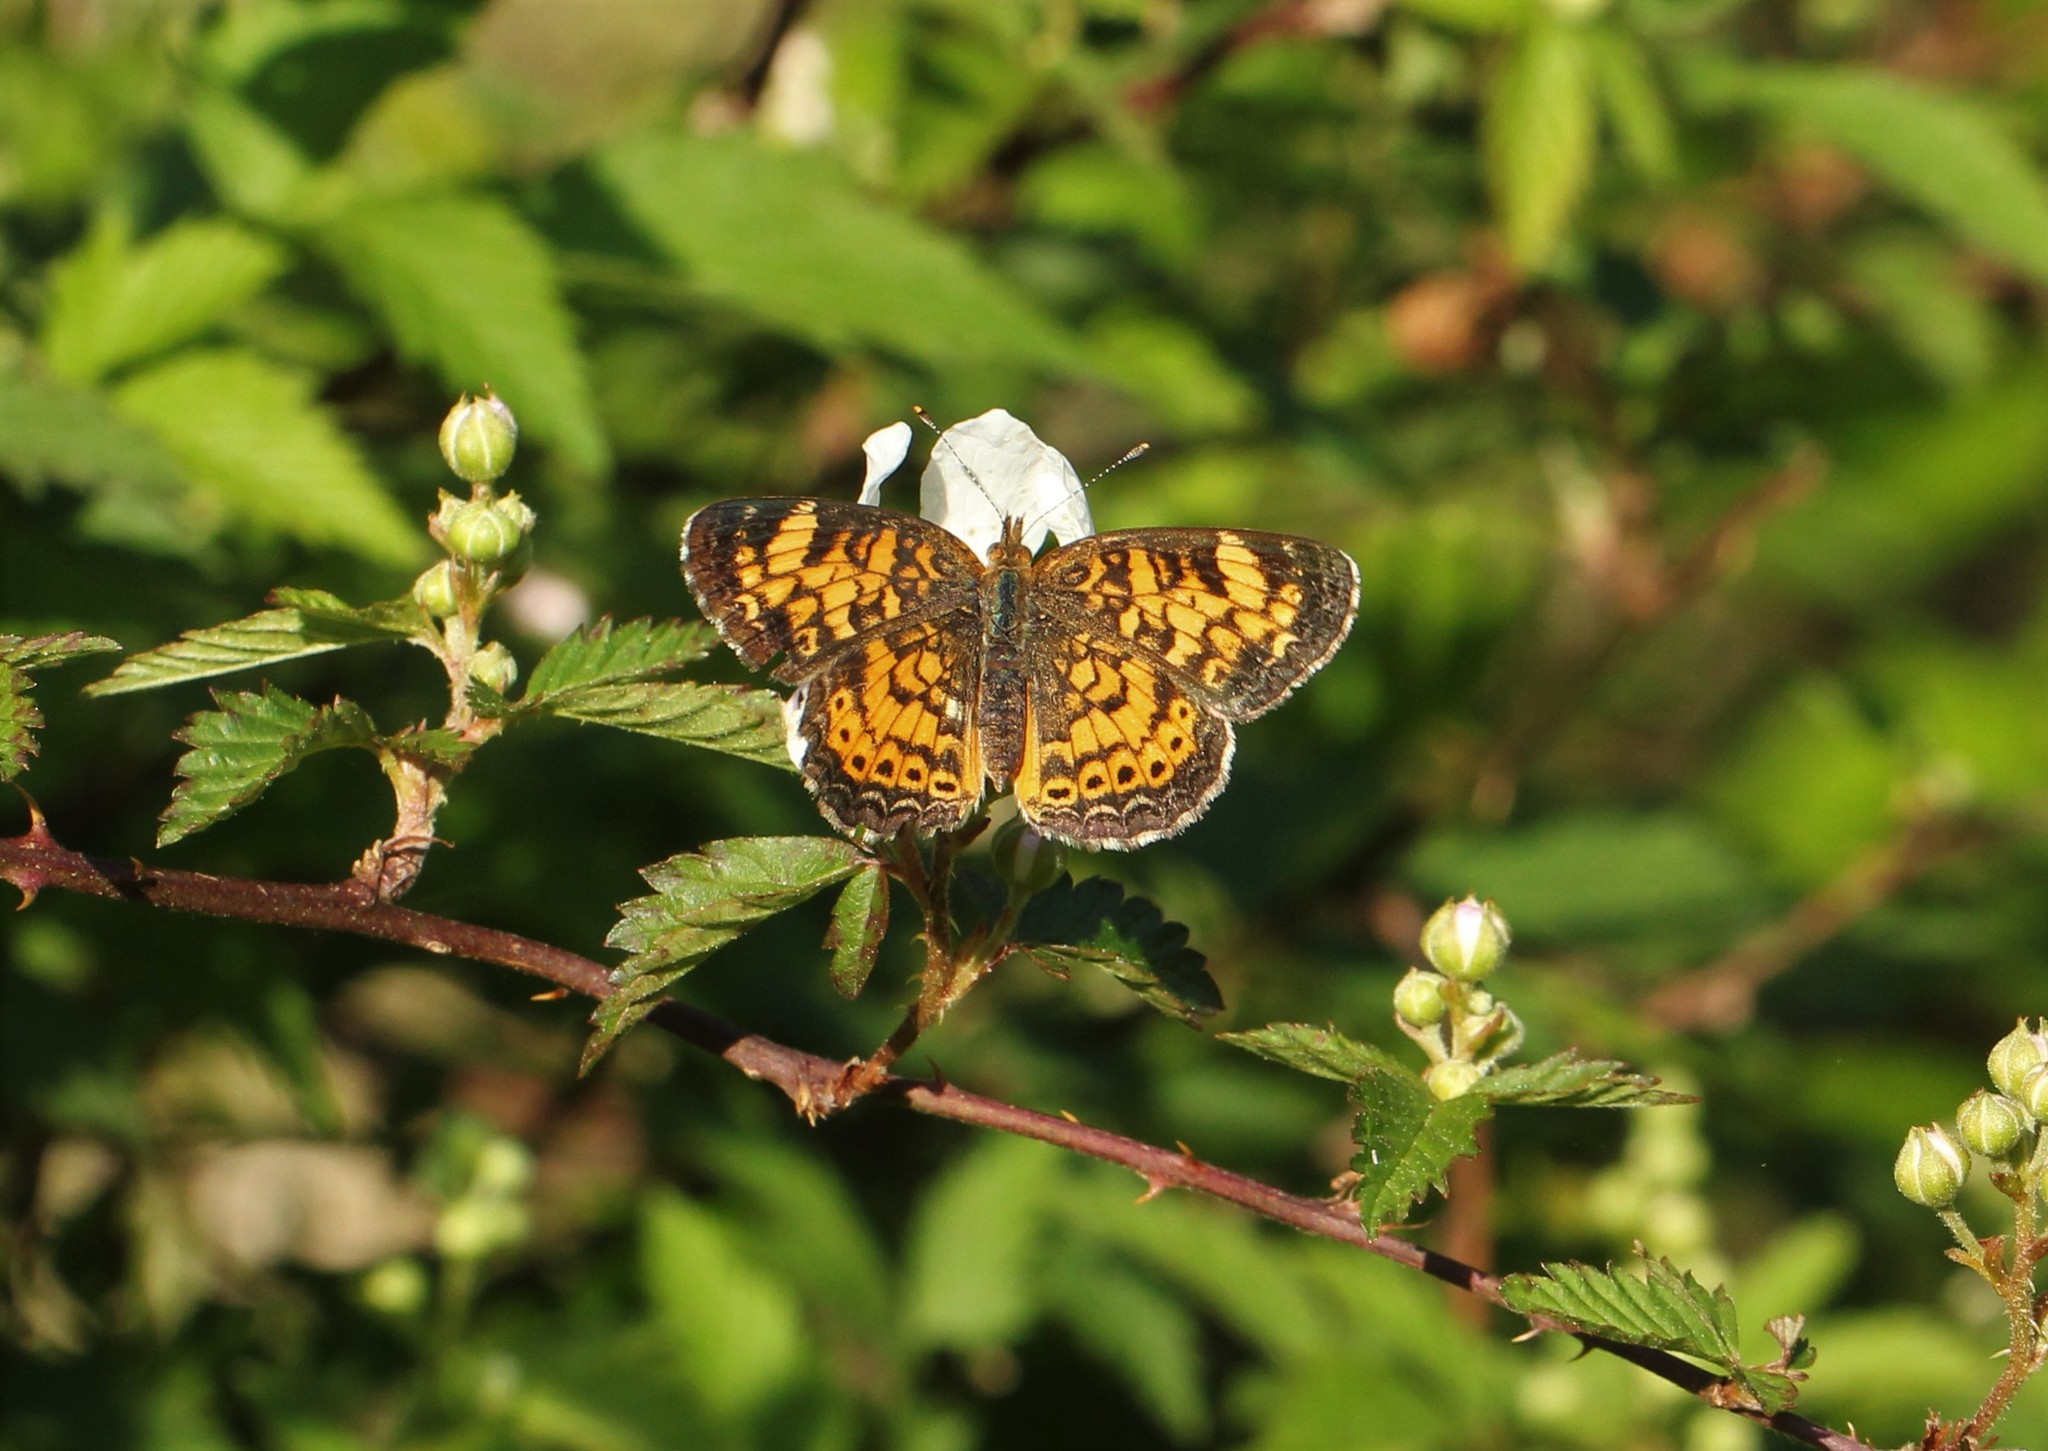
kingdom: Animalia
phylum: Arthropoda
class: Insecta
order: Lepidoptera
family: Nymphalidae
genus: Phyciodes
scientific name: Phyciodes tharos
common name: Pearl crescent
